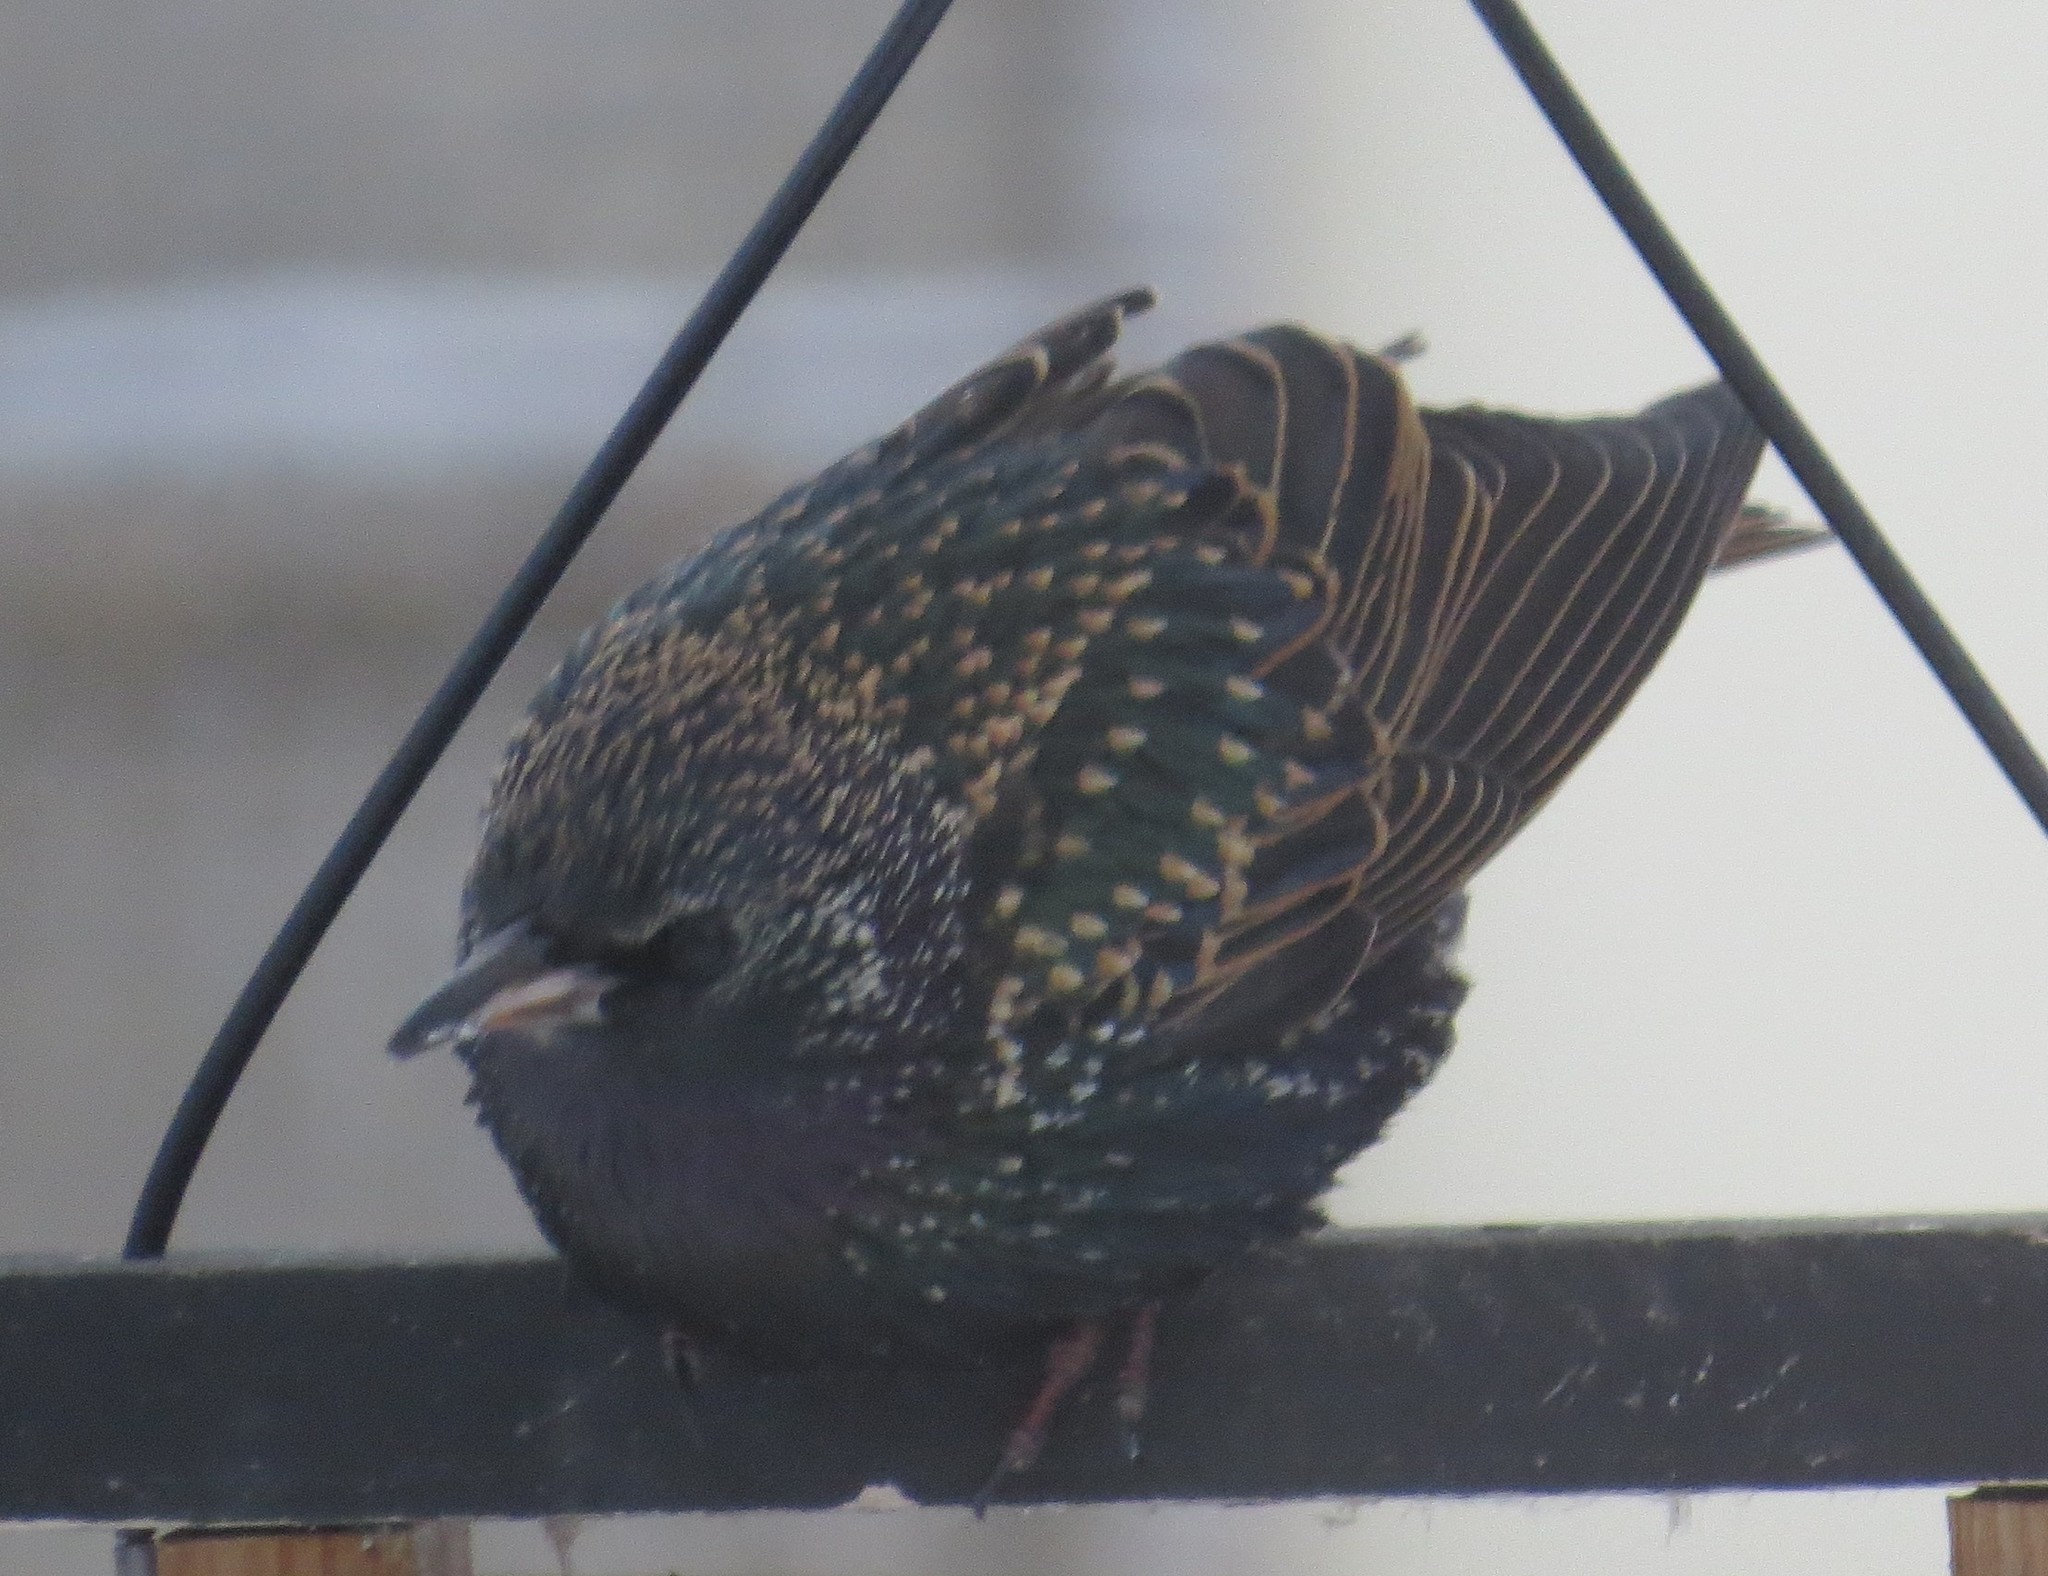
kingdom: Animalia
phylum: Chordata
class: Aves
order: Passeriformes
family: Sturnidae
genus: Sturnus
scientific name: Sturnus vulgaris
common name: Common starling
